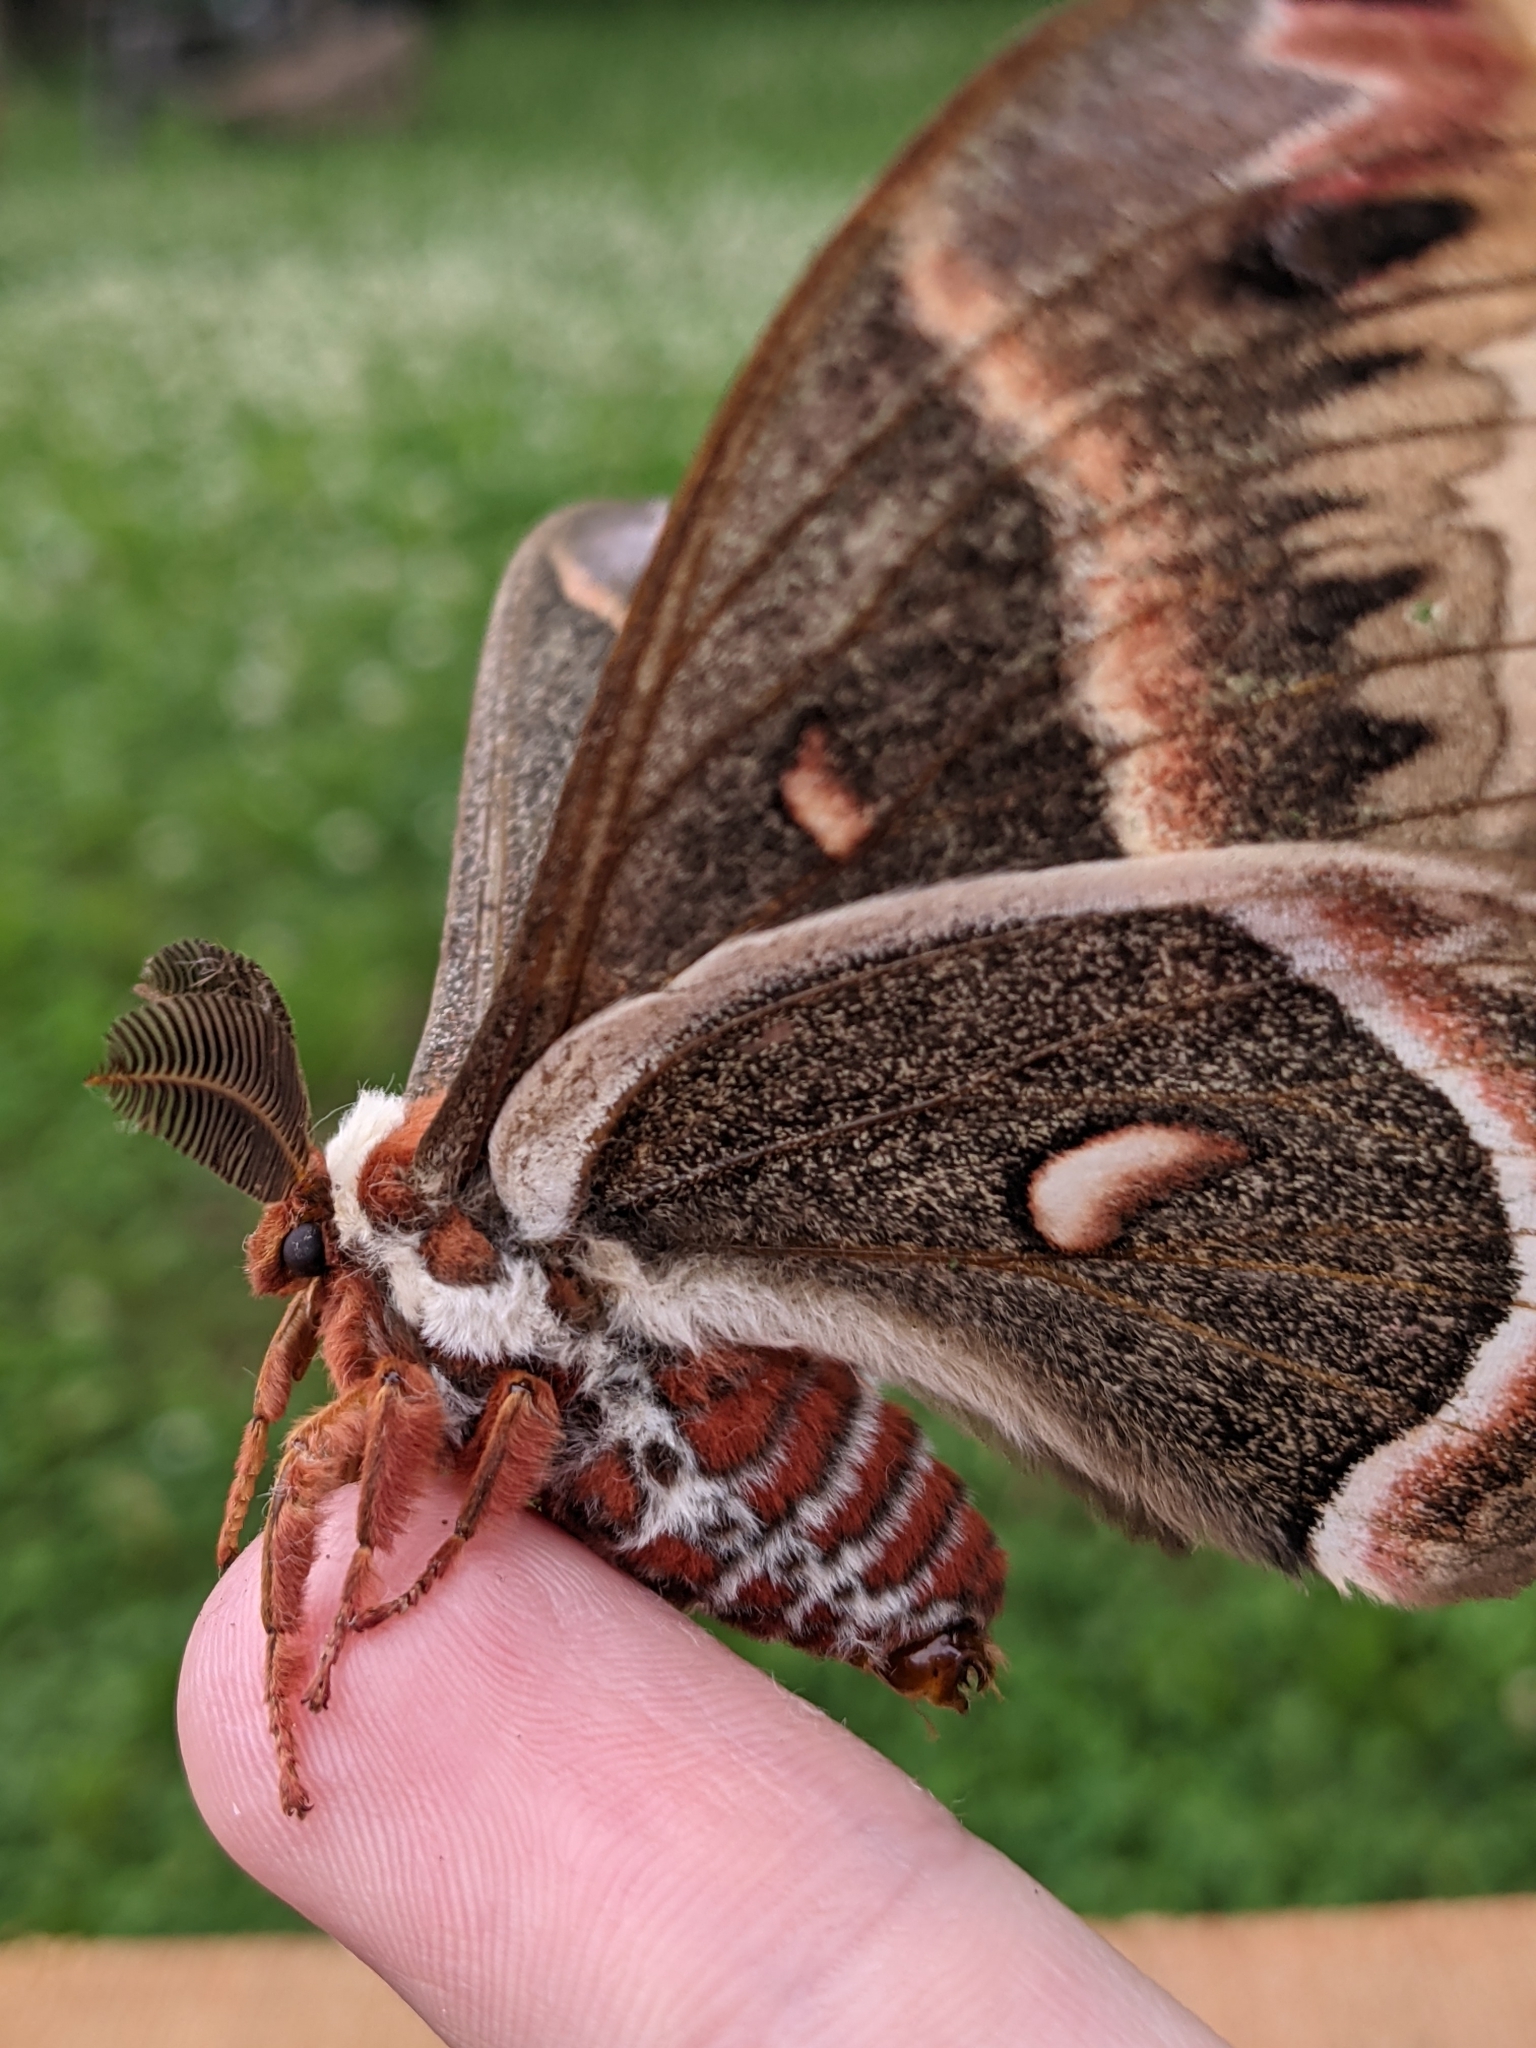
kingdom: Animalia
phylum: Arthropoda
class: Insecta
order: Lepidoptera
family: Saturniidae
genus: Hyalophora
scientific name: Hyalophora cecropia
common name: Cecropia silkmoth
